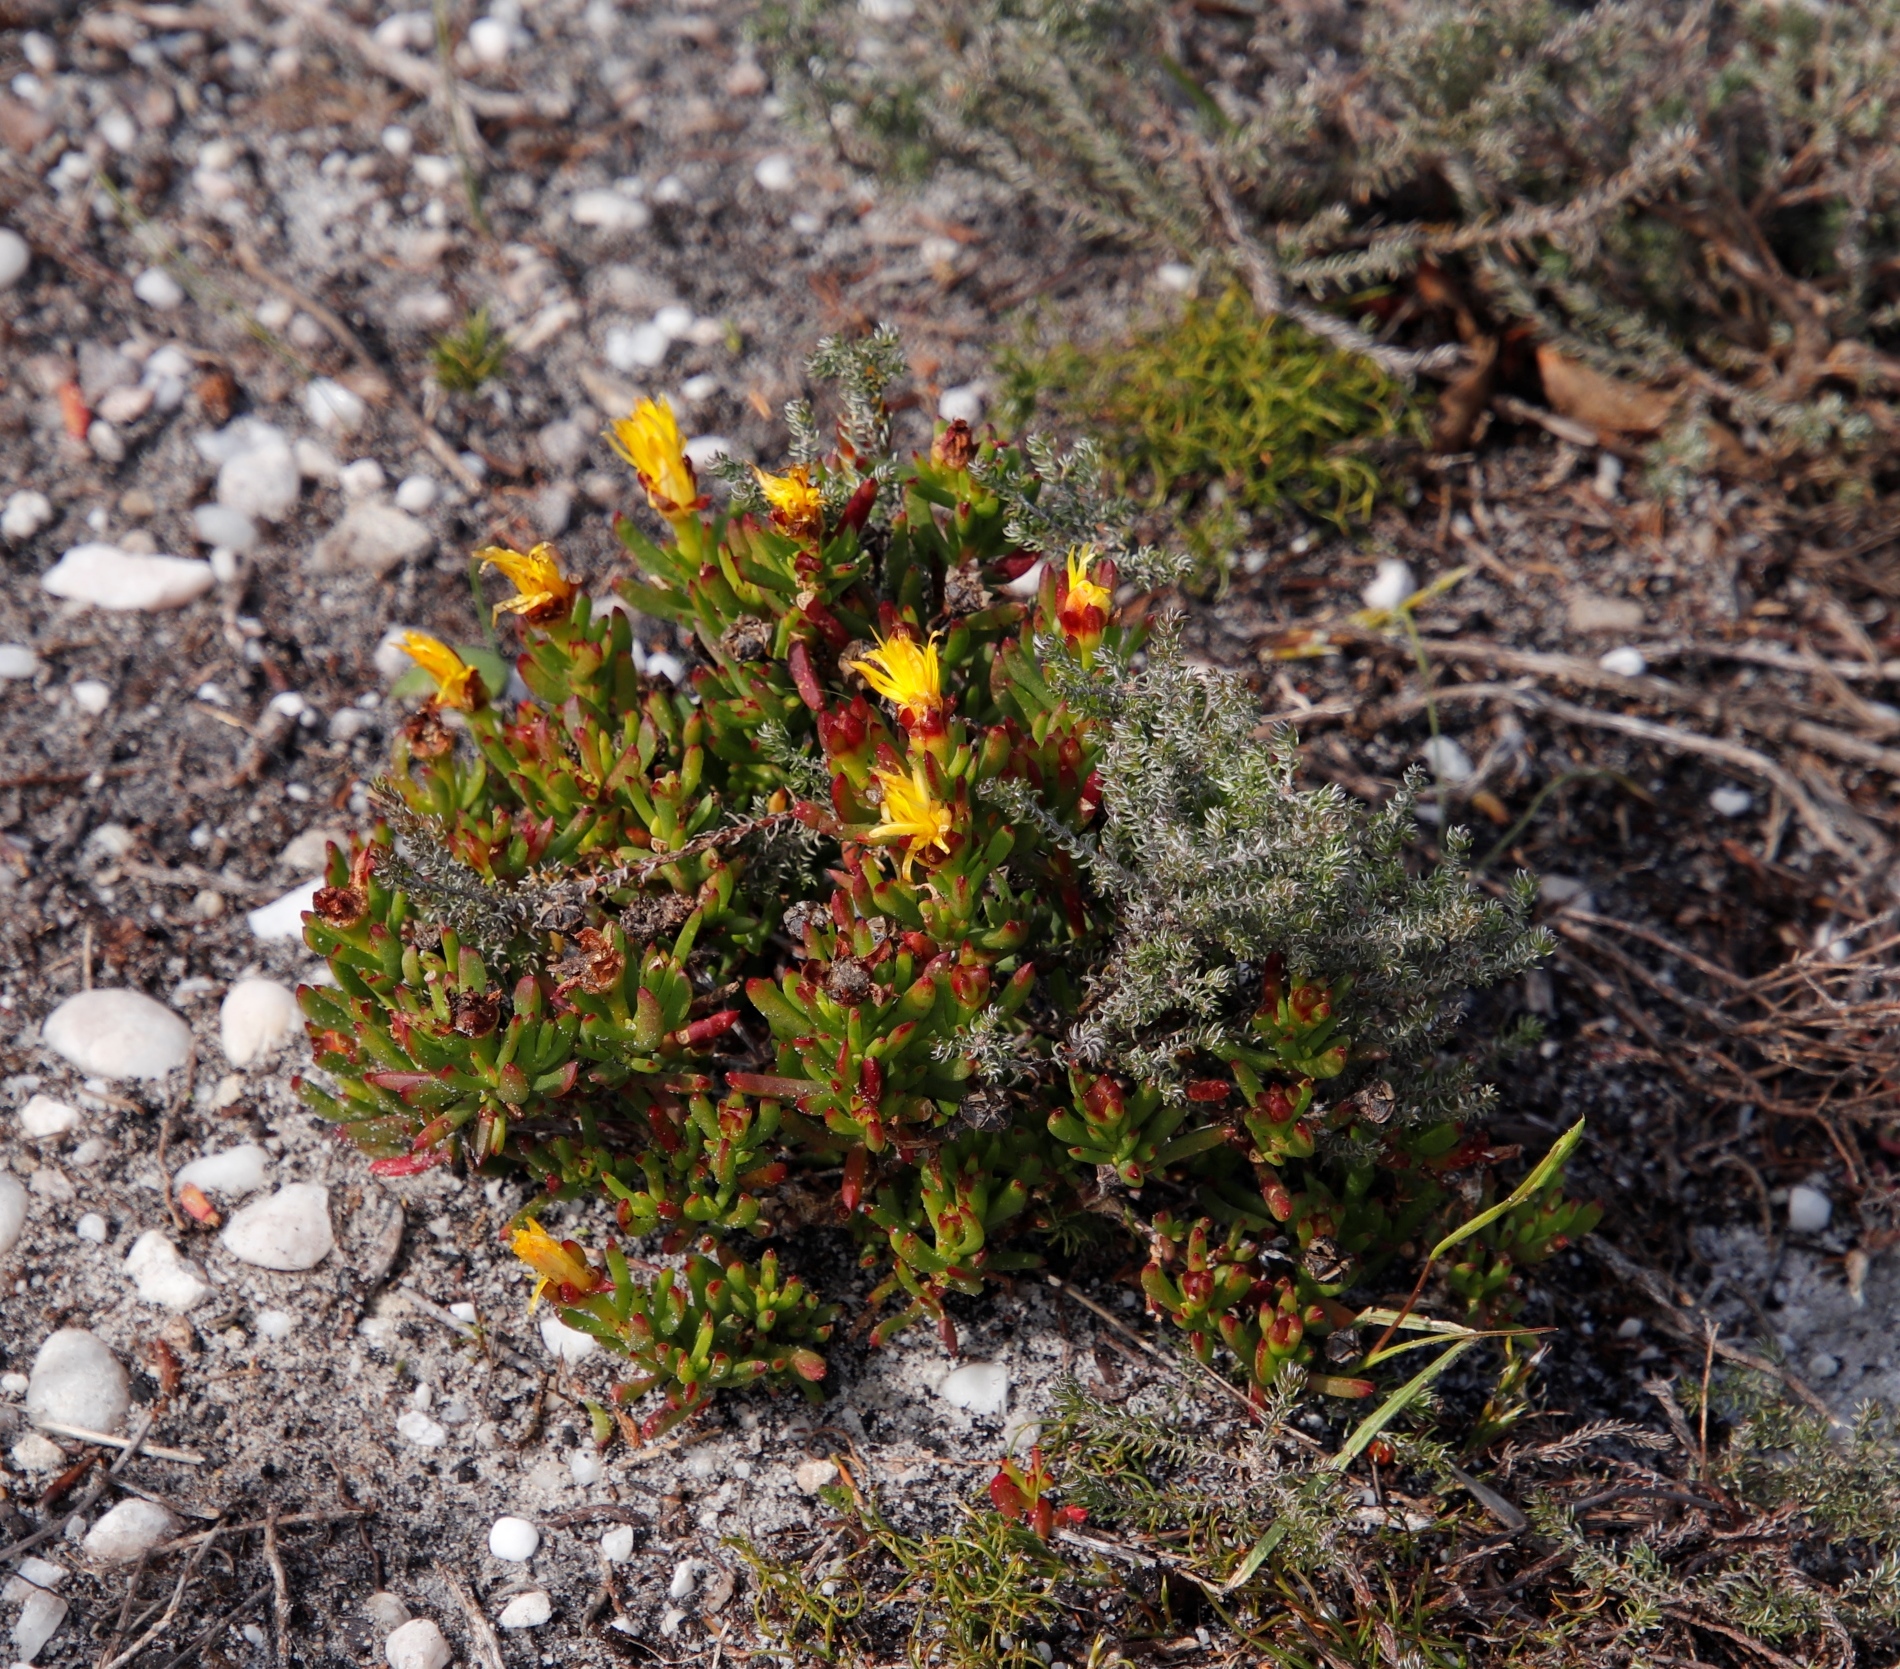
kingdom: Plantae
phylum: Tracheophyta
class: Magnoliopsida
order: Caryophyllales
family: Aizoaceae
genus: Lampranthus
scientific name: Lampranthus promontorii
